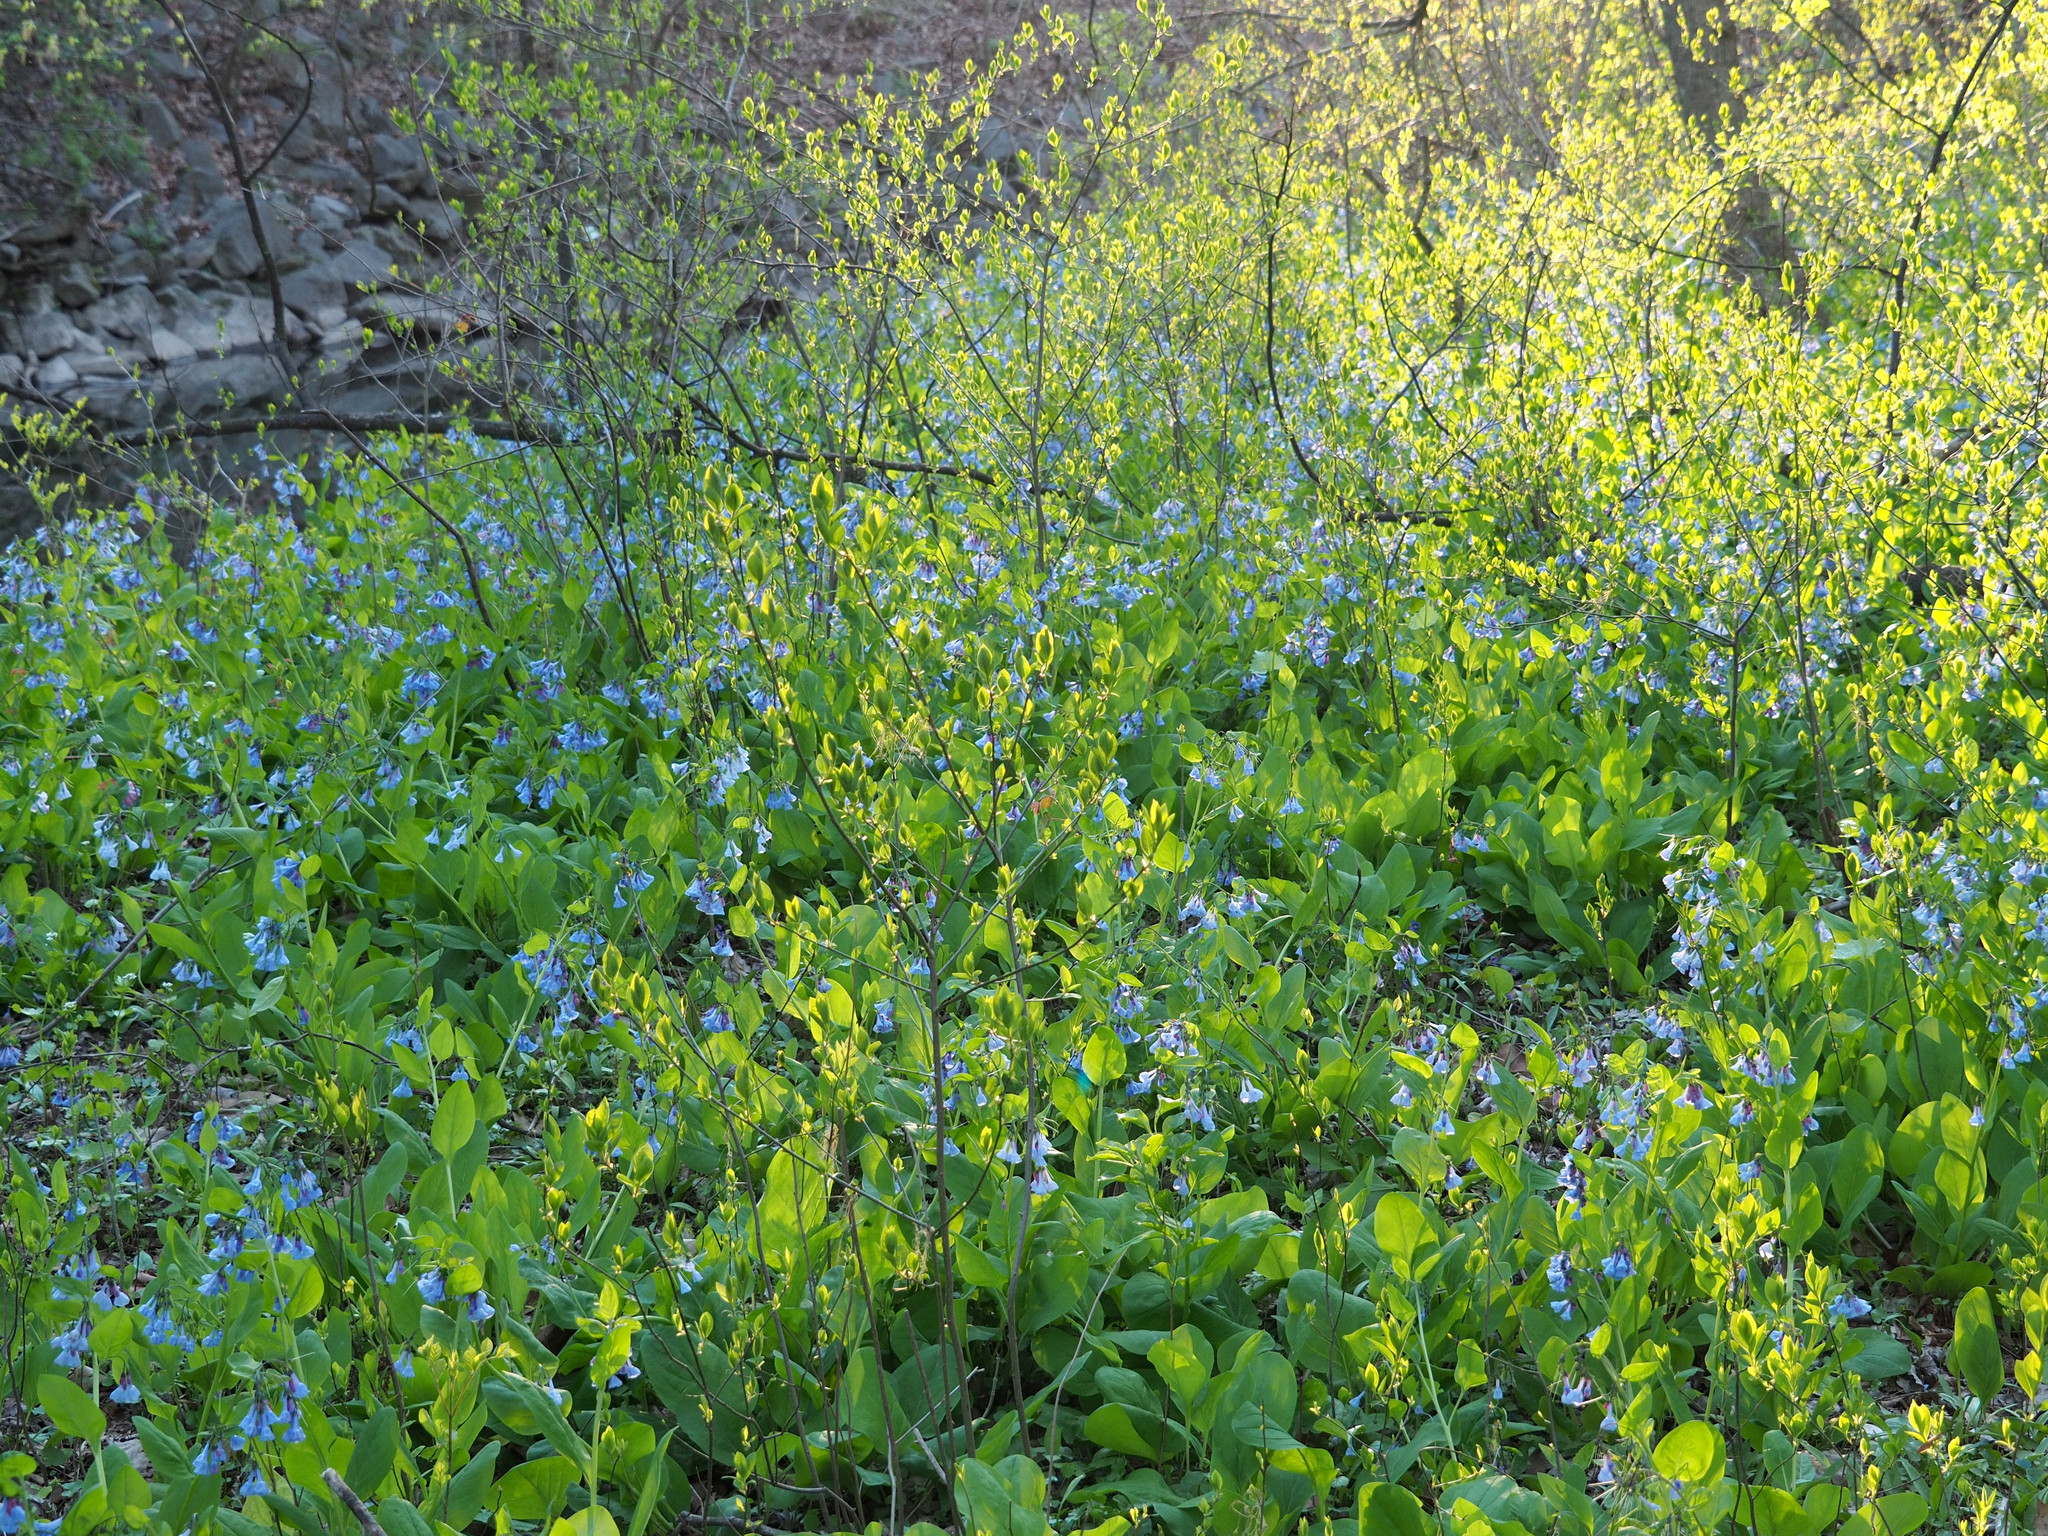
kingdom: Plantae
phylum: Tracheophyta
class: Magnoliopsida
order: Boraginales
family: Boraginaceae
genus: Mertensia
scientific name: Mertensia virginica
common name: Virginia bluebells
